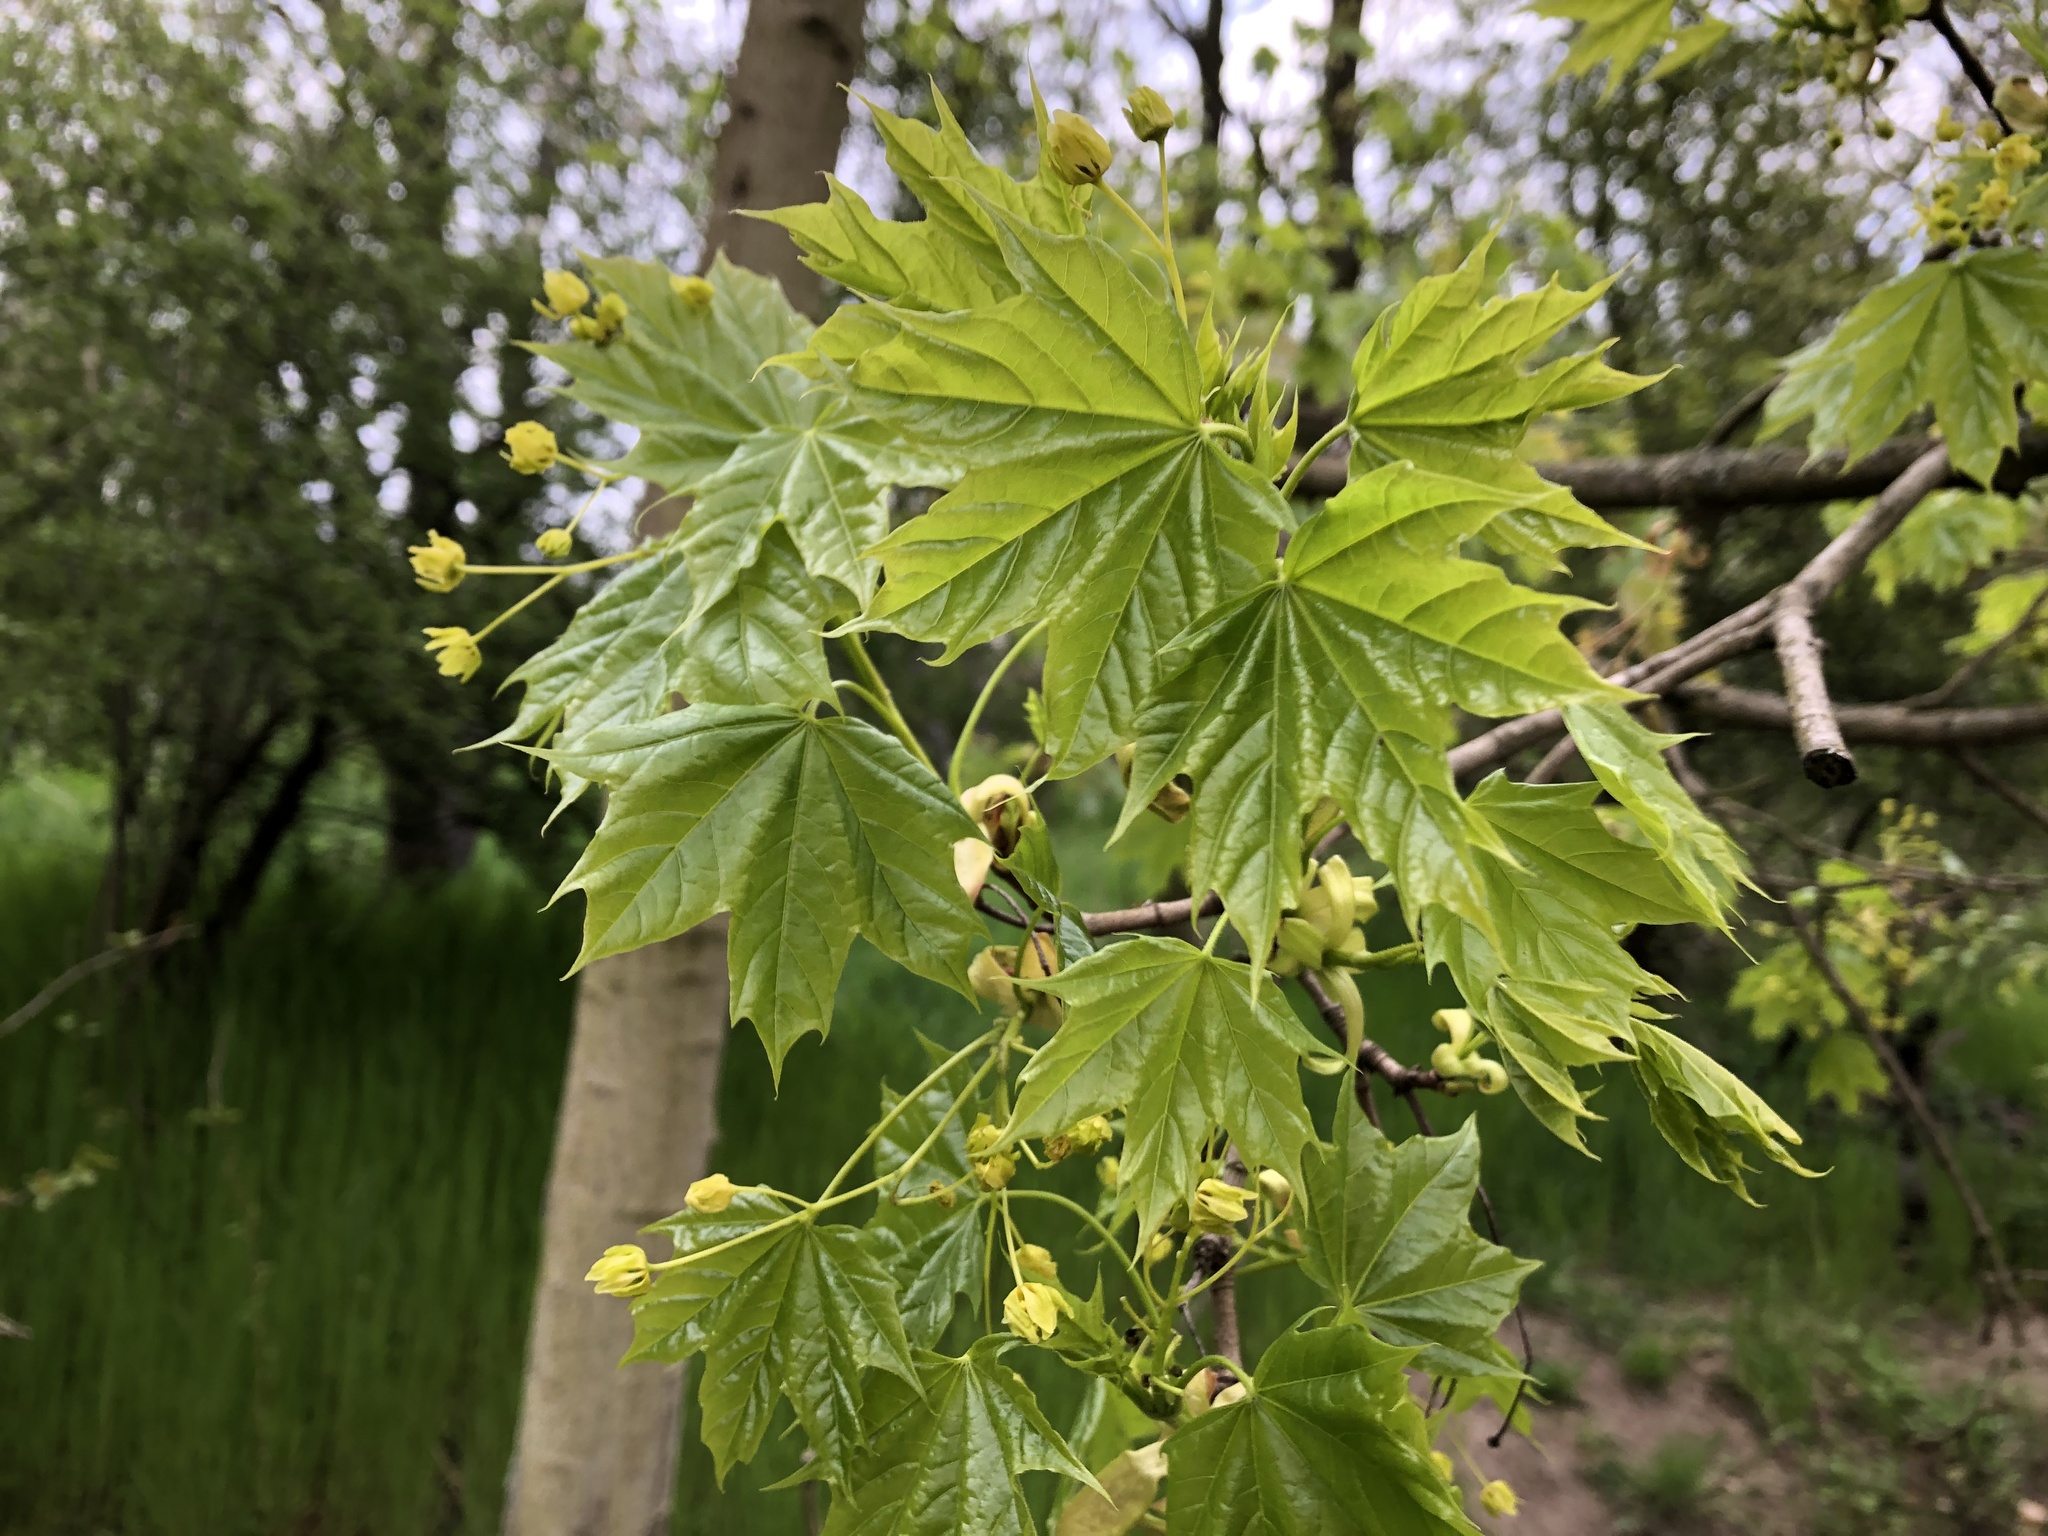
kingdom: Plantae
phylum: Tracheophyta
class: Magnoliopsida
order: Sapindales
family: Sapindaceae
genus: Acer
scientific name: Acer platanoides
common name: Norway maple
